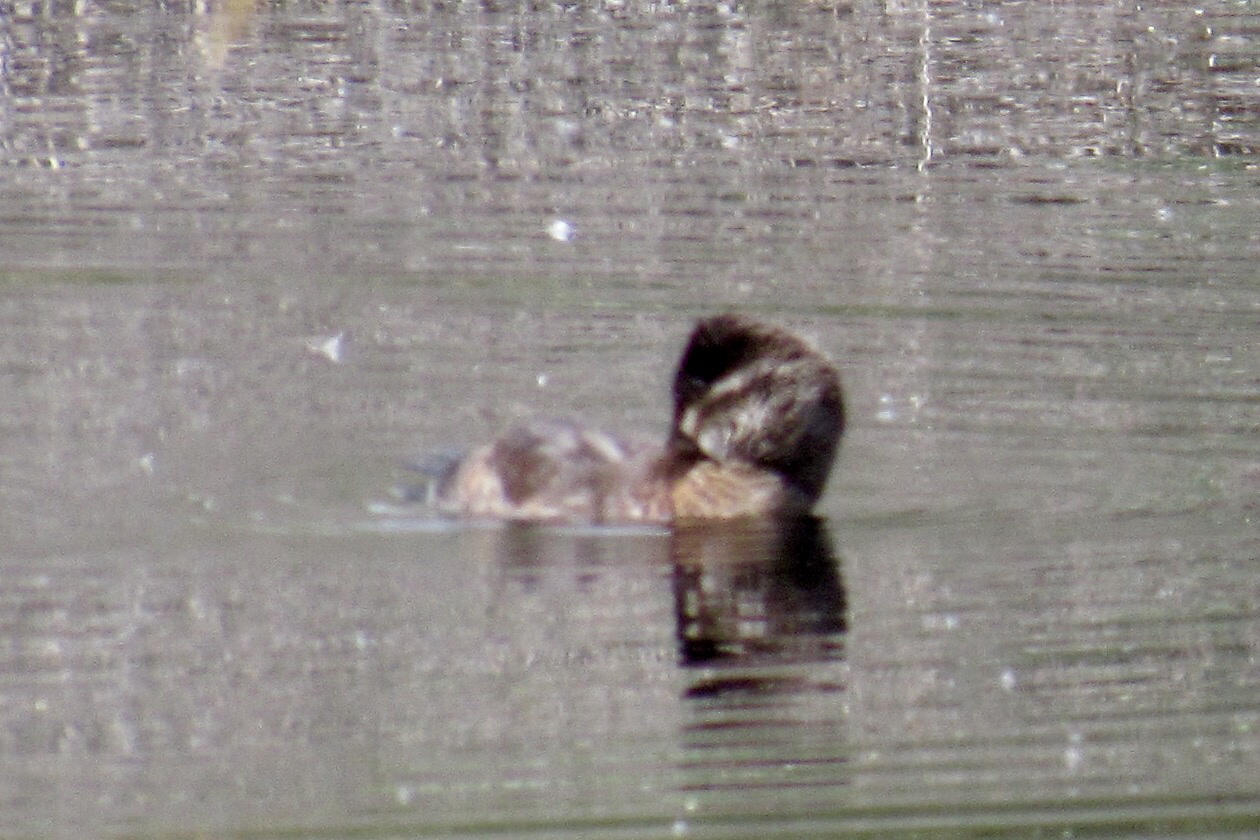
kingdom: Animalia
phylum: Chordata
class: Aves
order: Anseriformes
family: Anatidae
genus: Oxyura
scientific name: Oxyura jamaicensis
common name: Ruddy duck
